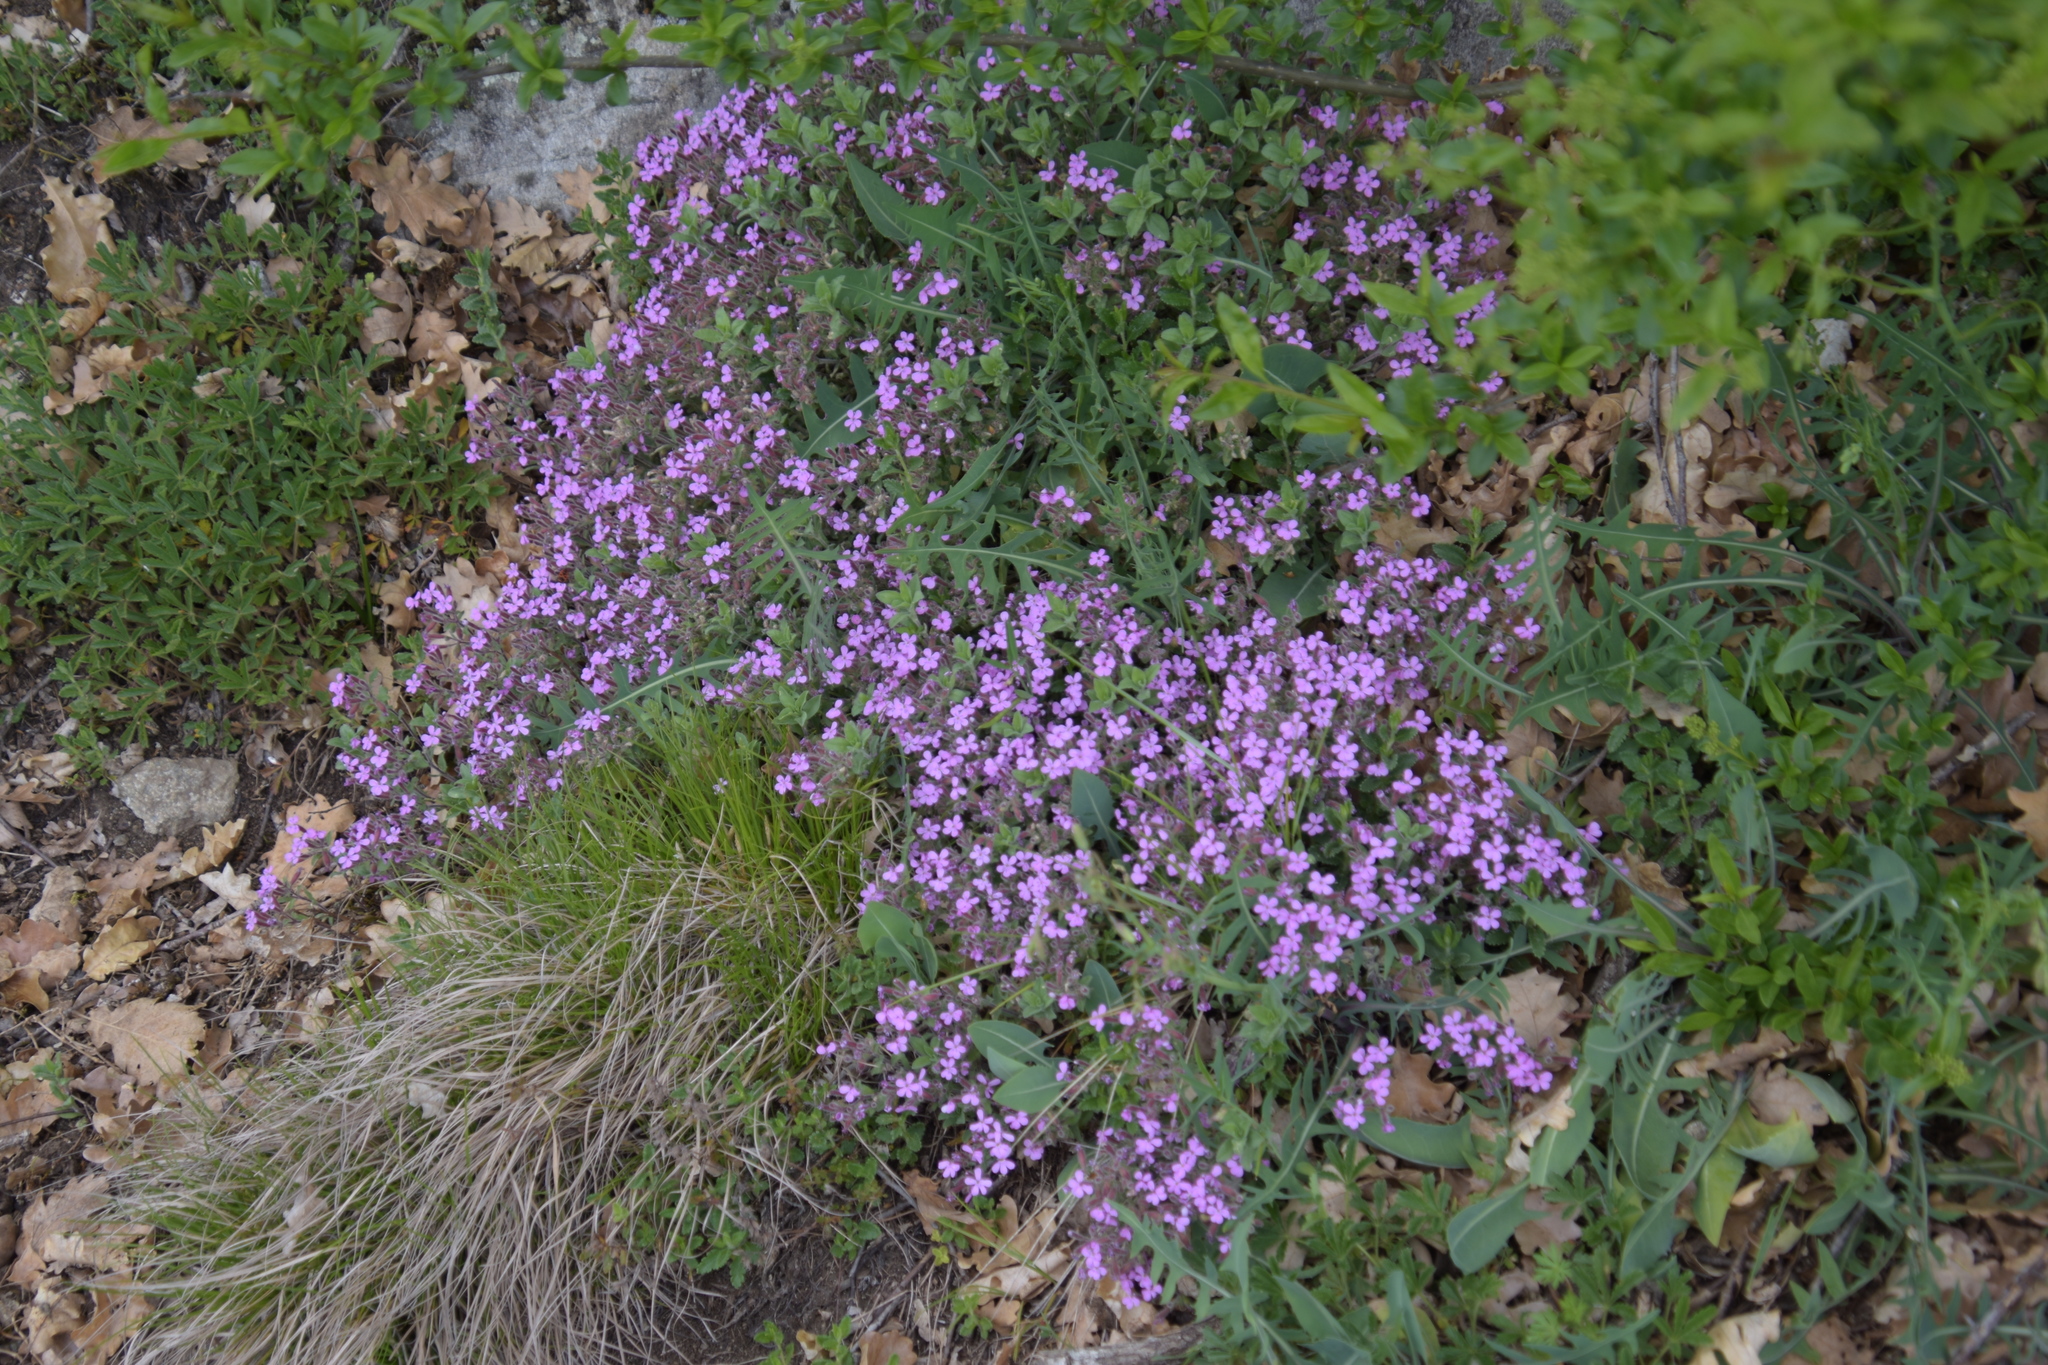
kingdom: Plantae
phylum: Tracheophyta
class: Magnoliopsida
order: Caryophyllales
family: Caryophyllaceae
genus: Saponaria
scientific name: Saponaria ocymoides
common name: Rock soapwort
